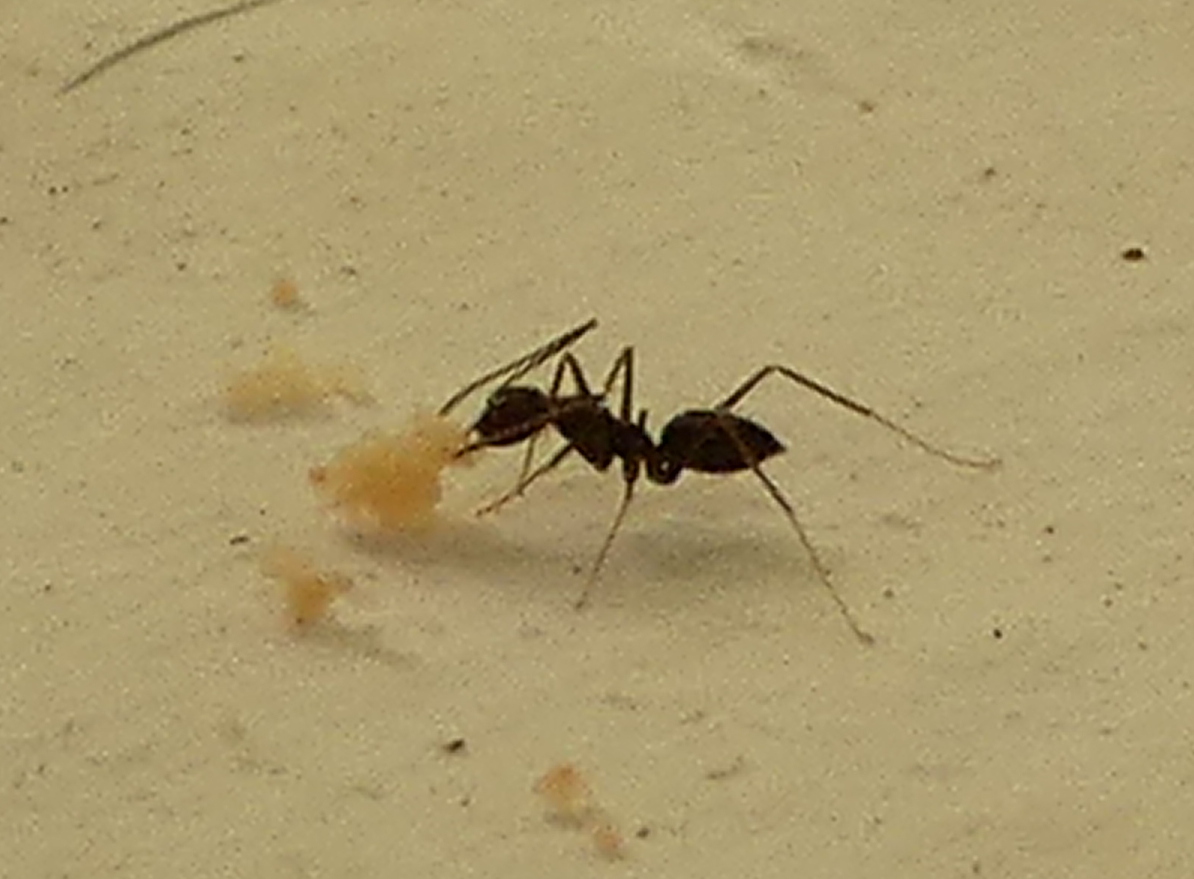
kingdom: Animalia
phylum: Arthropoda
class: Insecta
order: Hymenoptera
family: Formicidae
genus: Paratrechina
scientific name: Paratrechina longicornis
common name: Longhorned crazy ant
